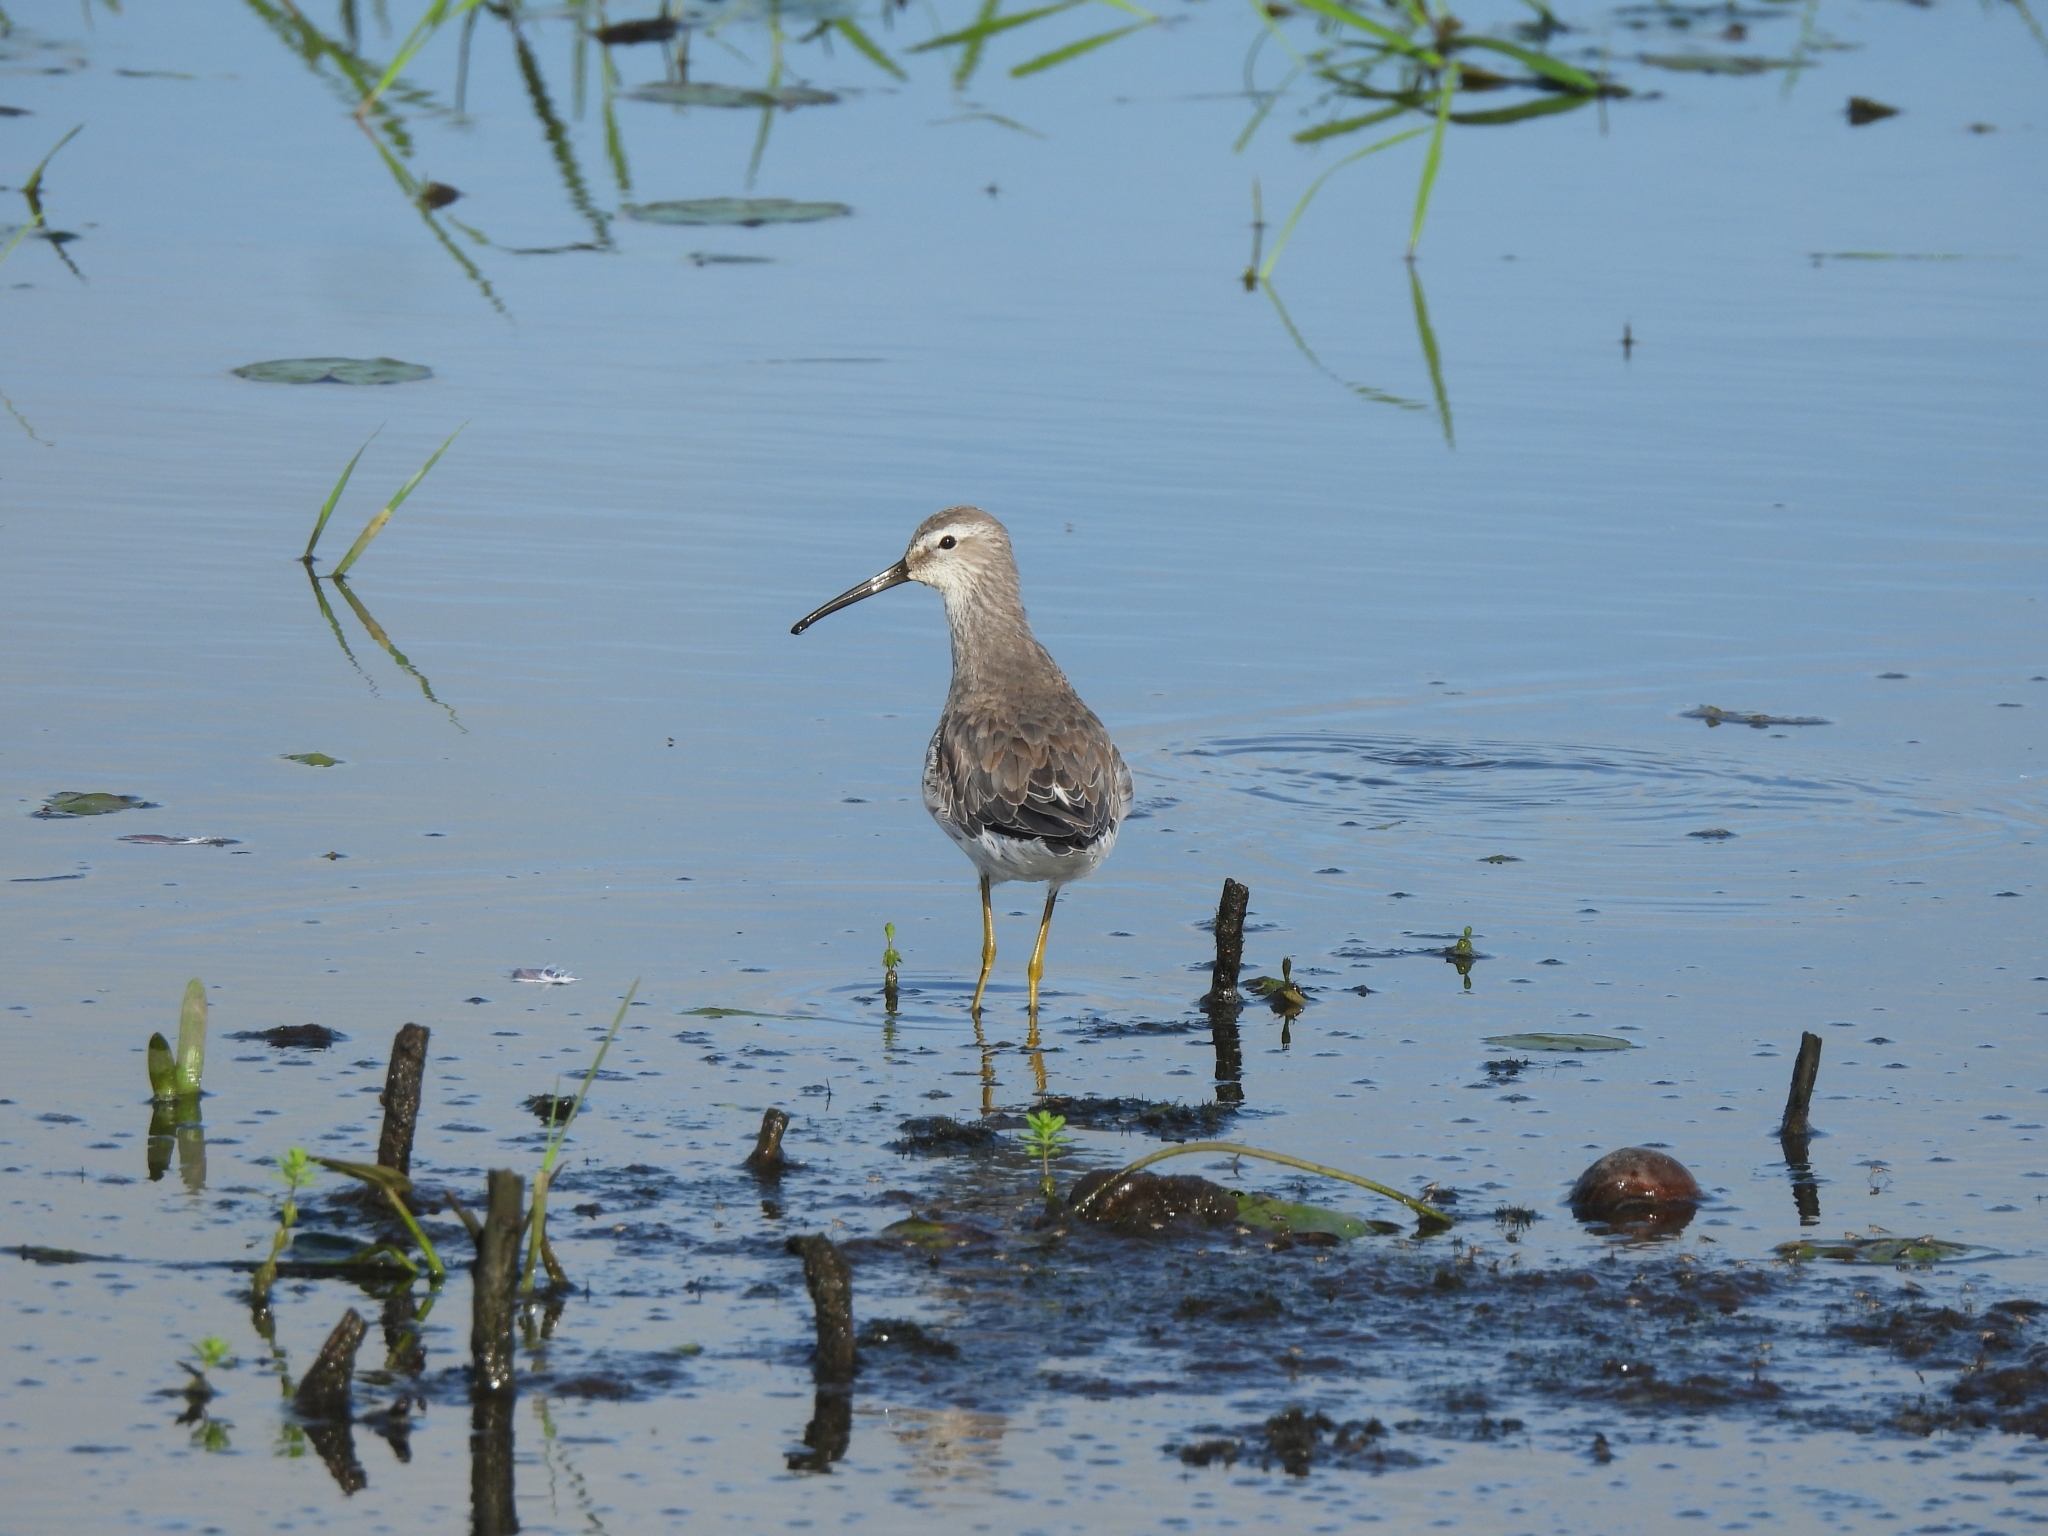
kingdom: Animalia
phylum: Chordata
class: Aves
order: Charadriiformes
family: Scolopacidae
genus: Calidris
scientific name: Calidris himantopus
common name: Stilt sandpiper
